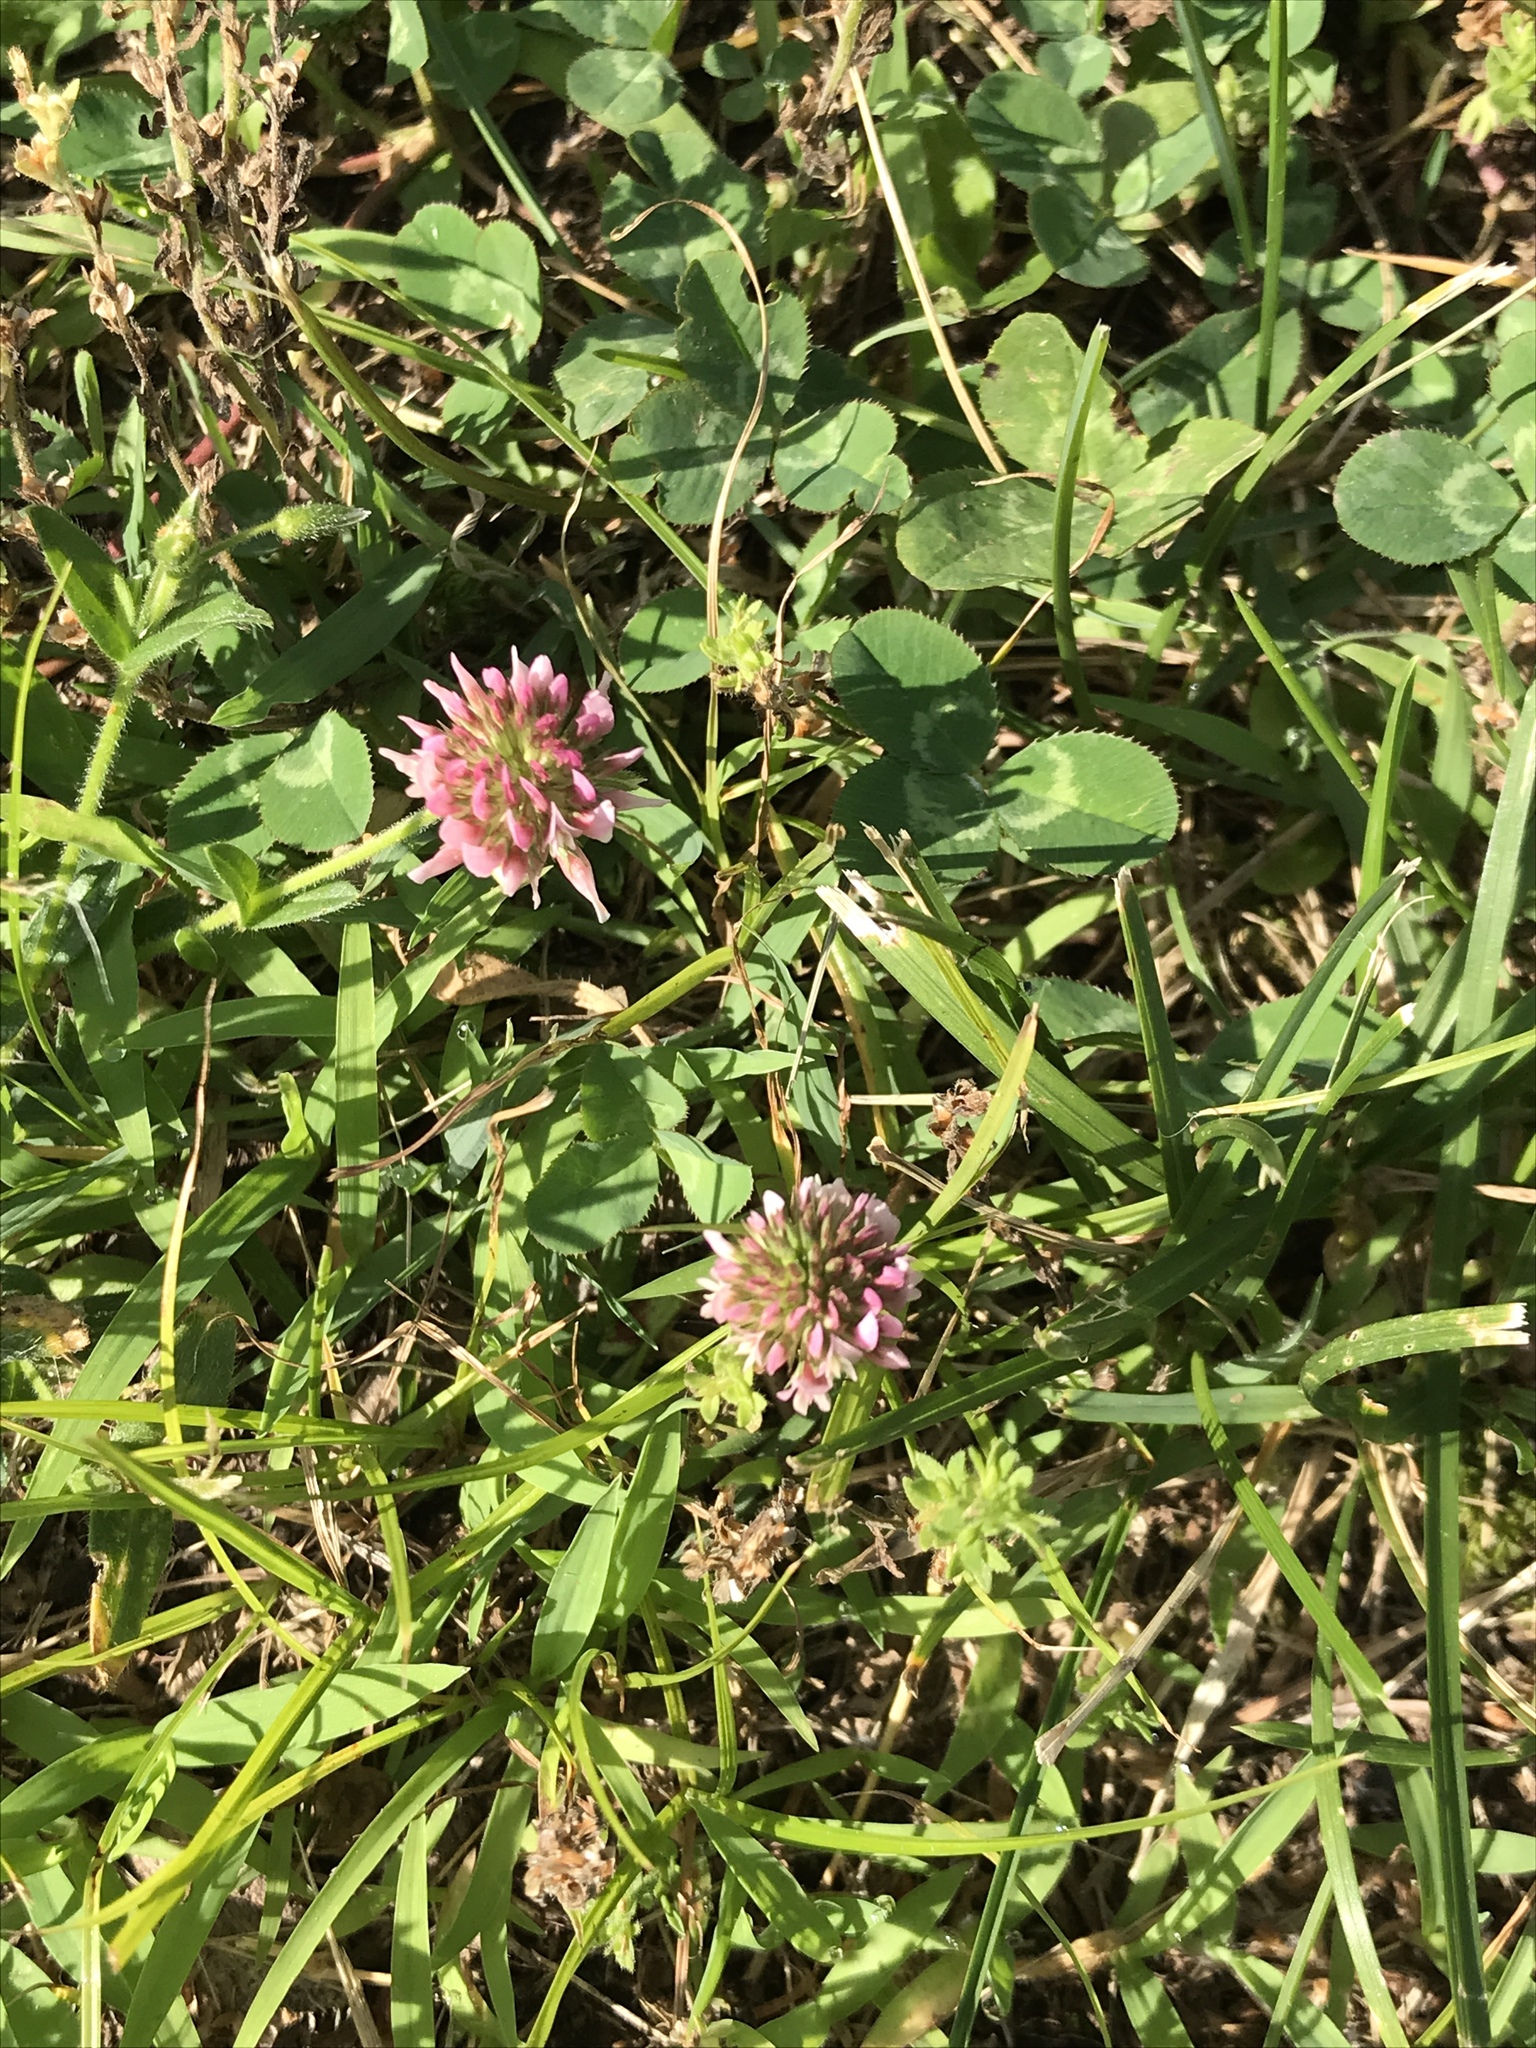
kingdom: Plantae
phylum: Tracheophyta
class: Magnoliopsida
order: Fabales
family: Fabaceae
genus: Trifolium
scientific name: Trifolium pratense
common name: Red clover
